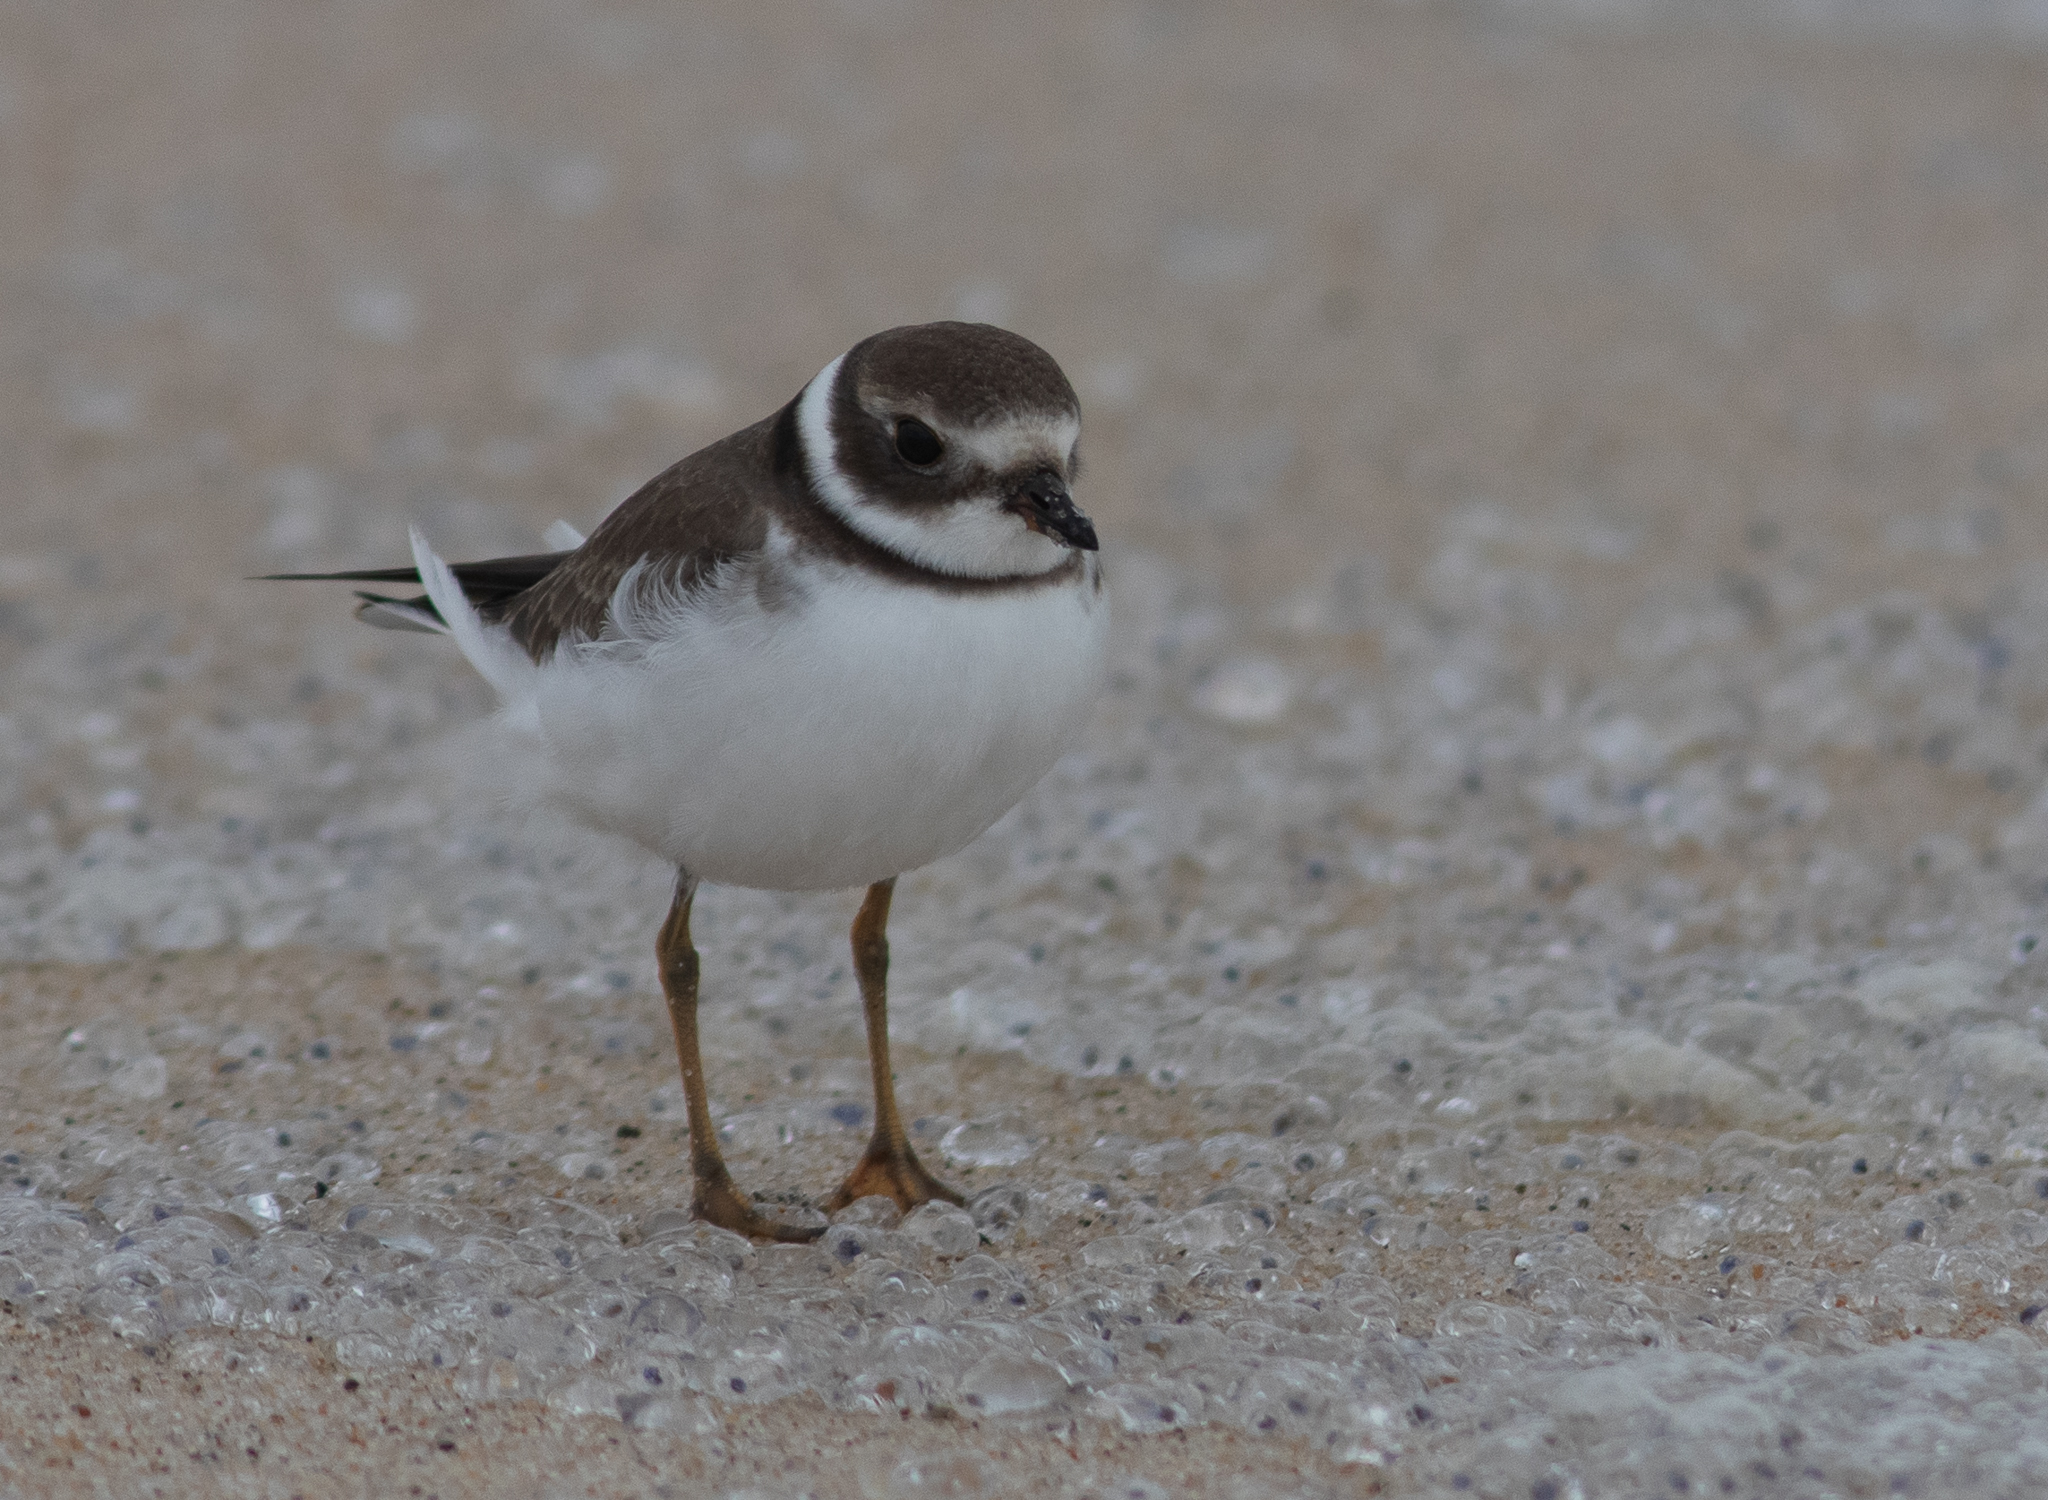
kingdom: Animalia
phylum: Chordata
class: Aves
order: Charadriiformes
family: Charadriidae
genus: Charadrius
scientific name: Charadrius semipalmatus
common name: Semipalmated plover
